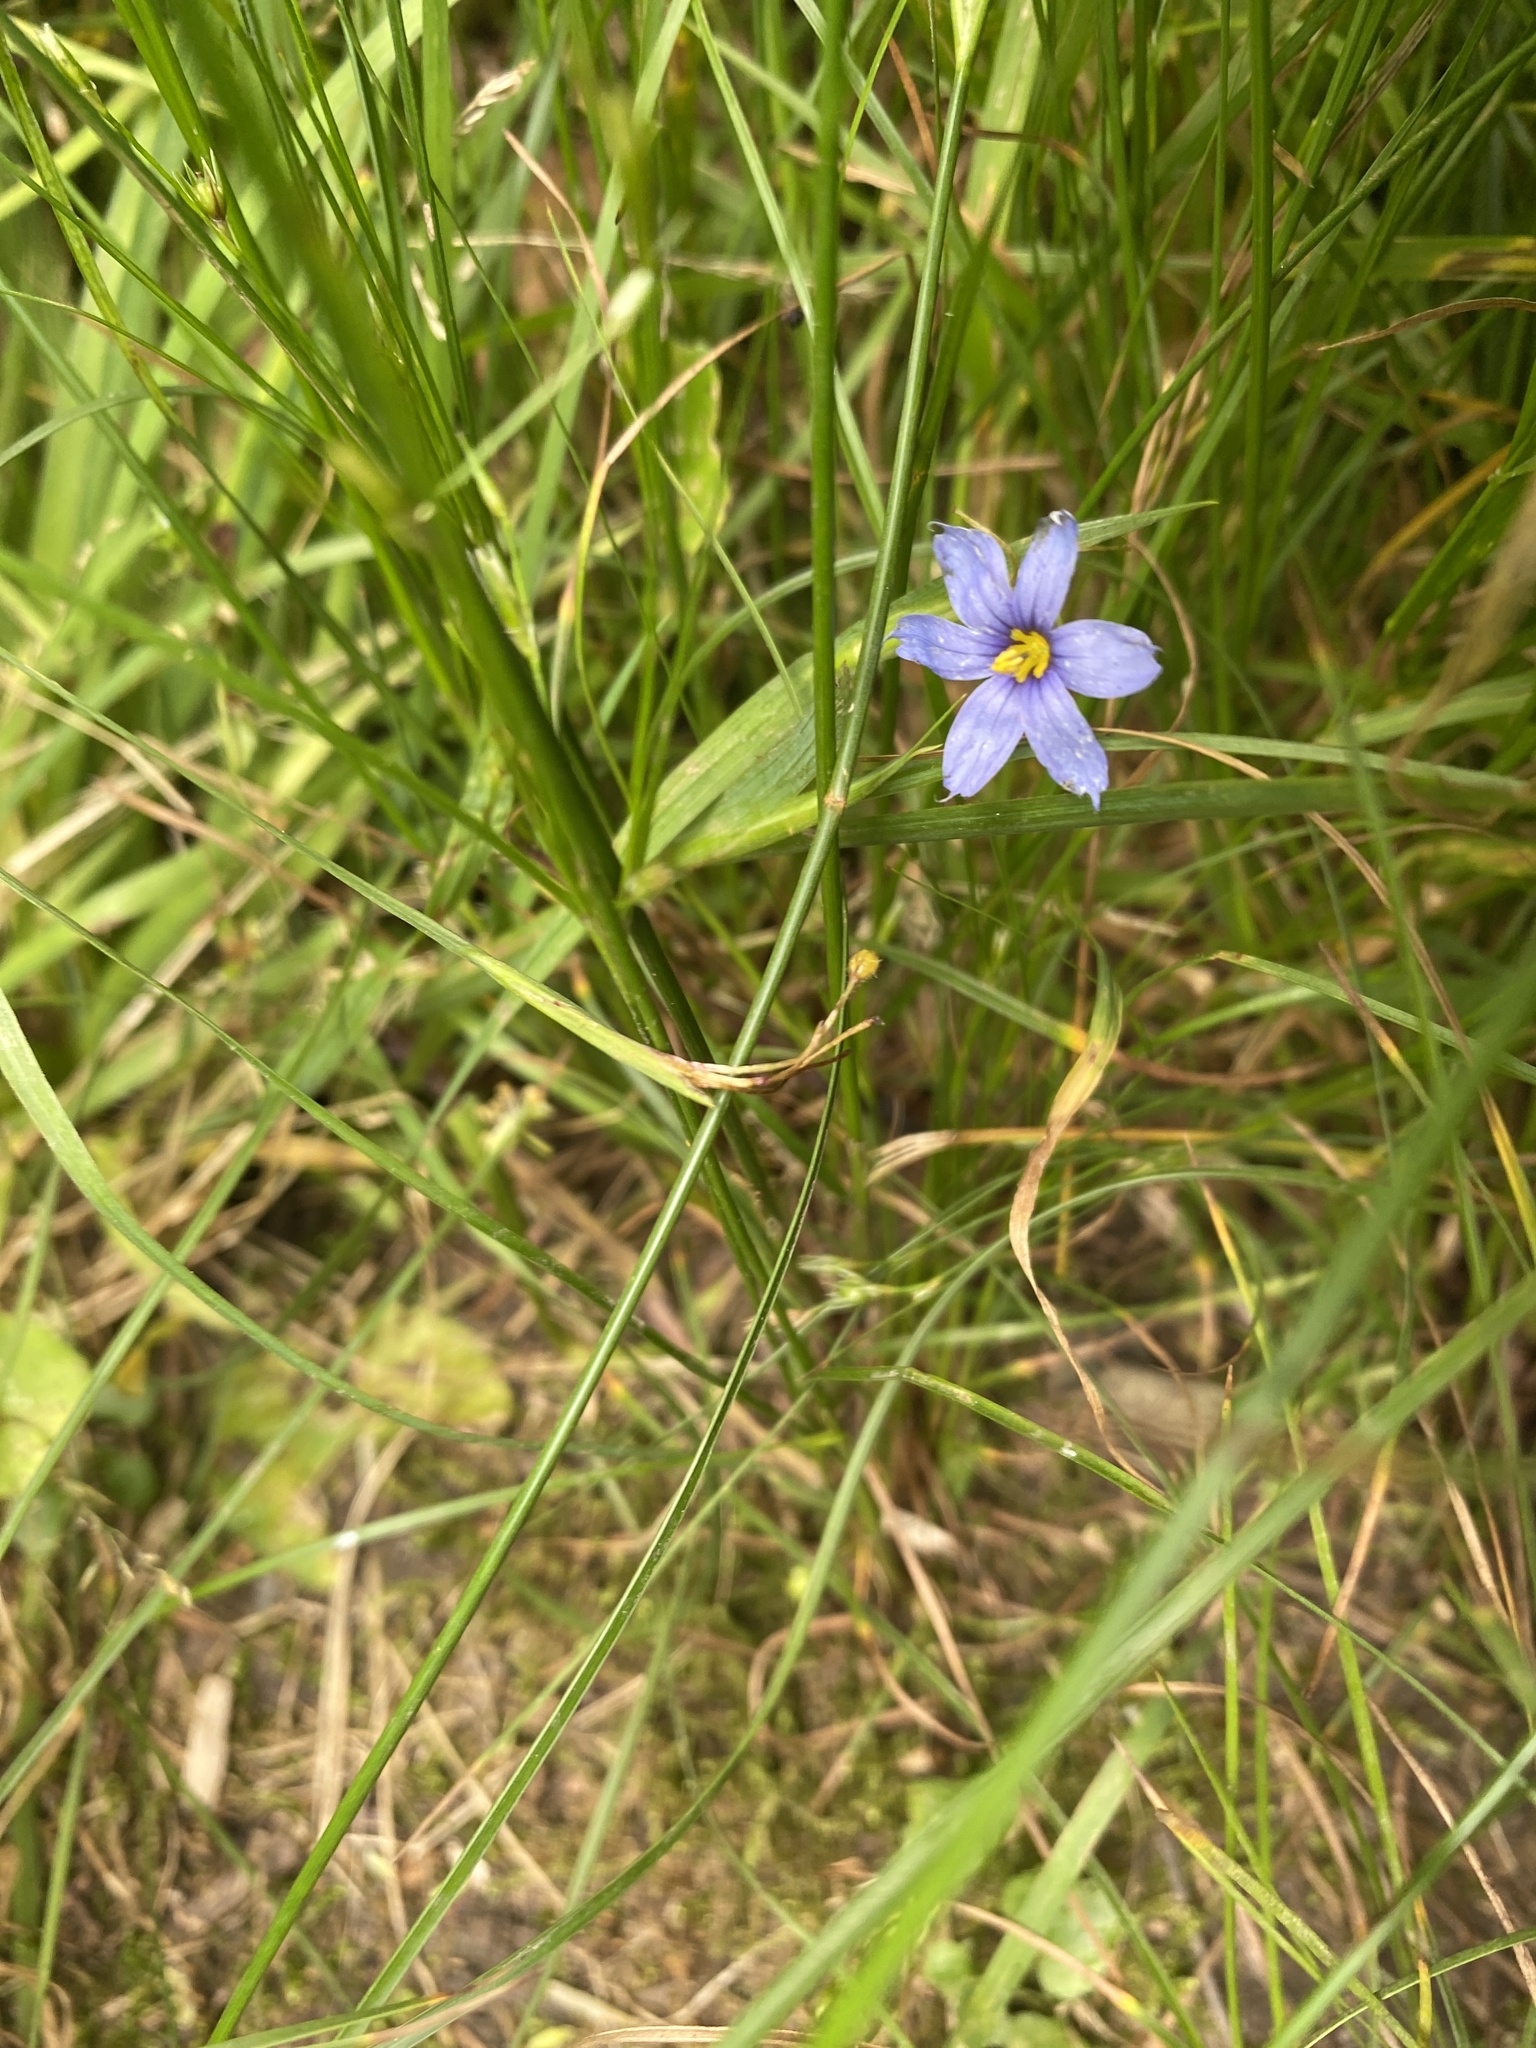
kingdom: Plantae
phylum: Tracheophyta
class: Liliopsida
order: Asparagales
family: Iridaceae
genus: Sisyrinchium
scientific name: Sisyrinchium angustifolium
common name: Narrow-leaf blue-eyed-grass
